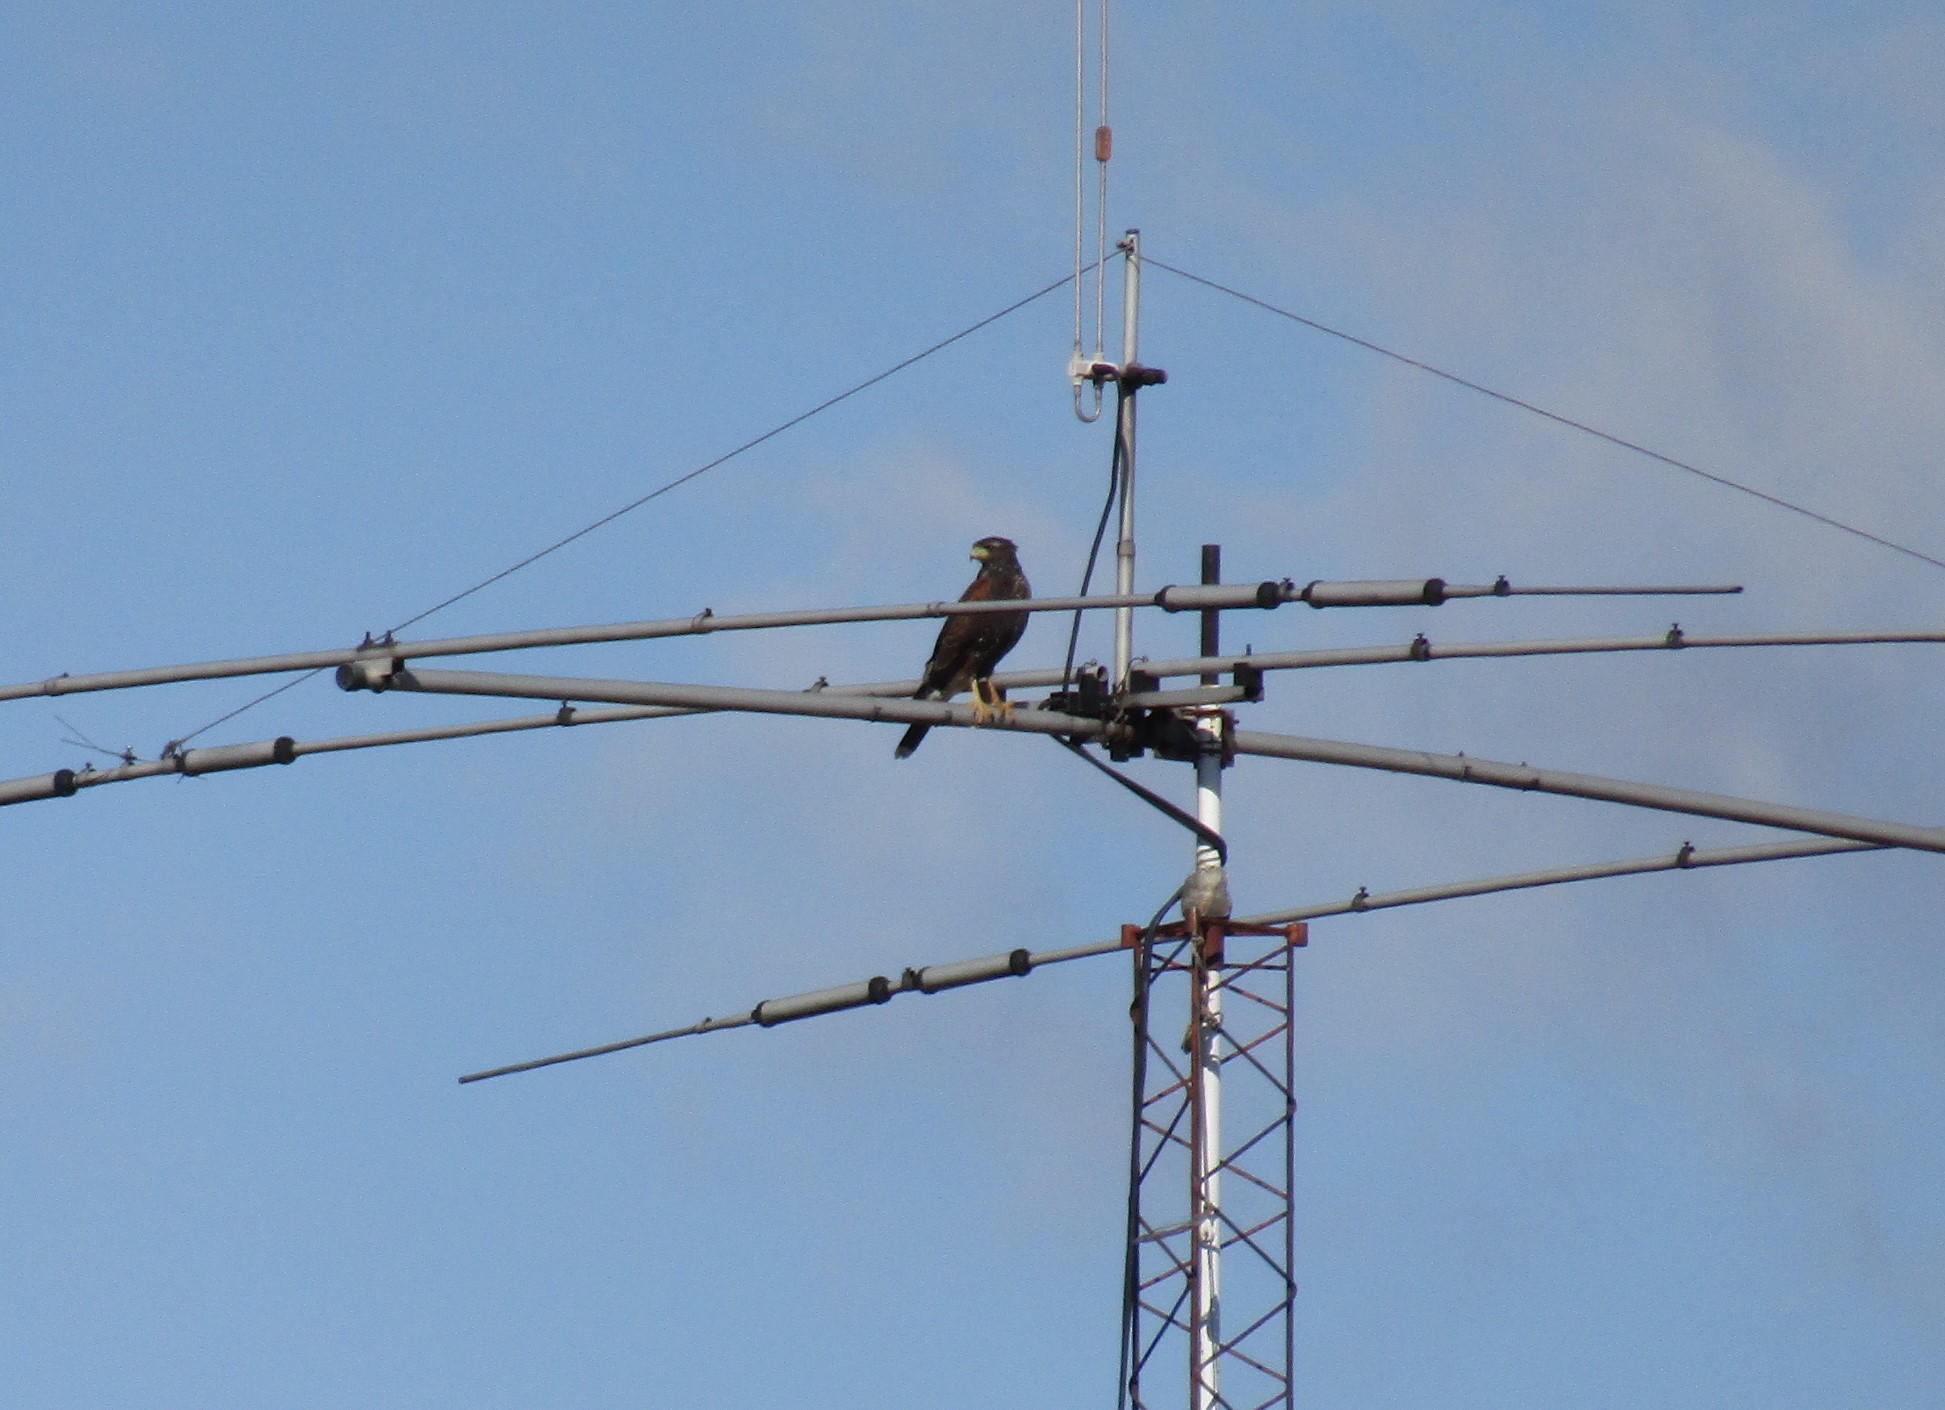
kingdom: Animalia
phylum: Chordata
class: Aves
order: Accipitriformes
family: Accipitridae
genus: Parabuteo
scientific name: Parabuteo unicinctus
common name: Harris's hawk
